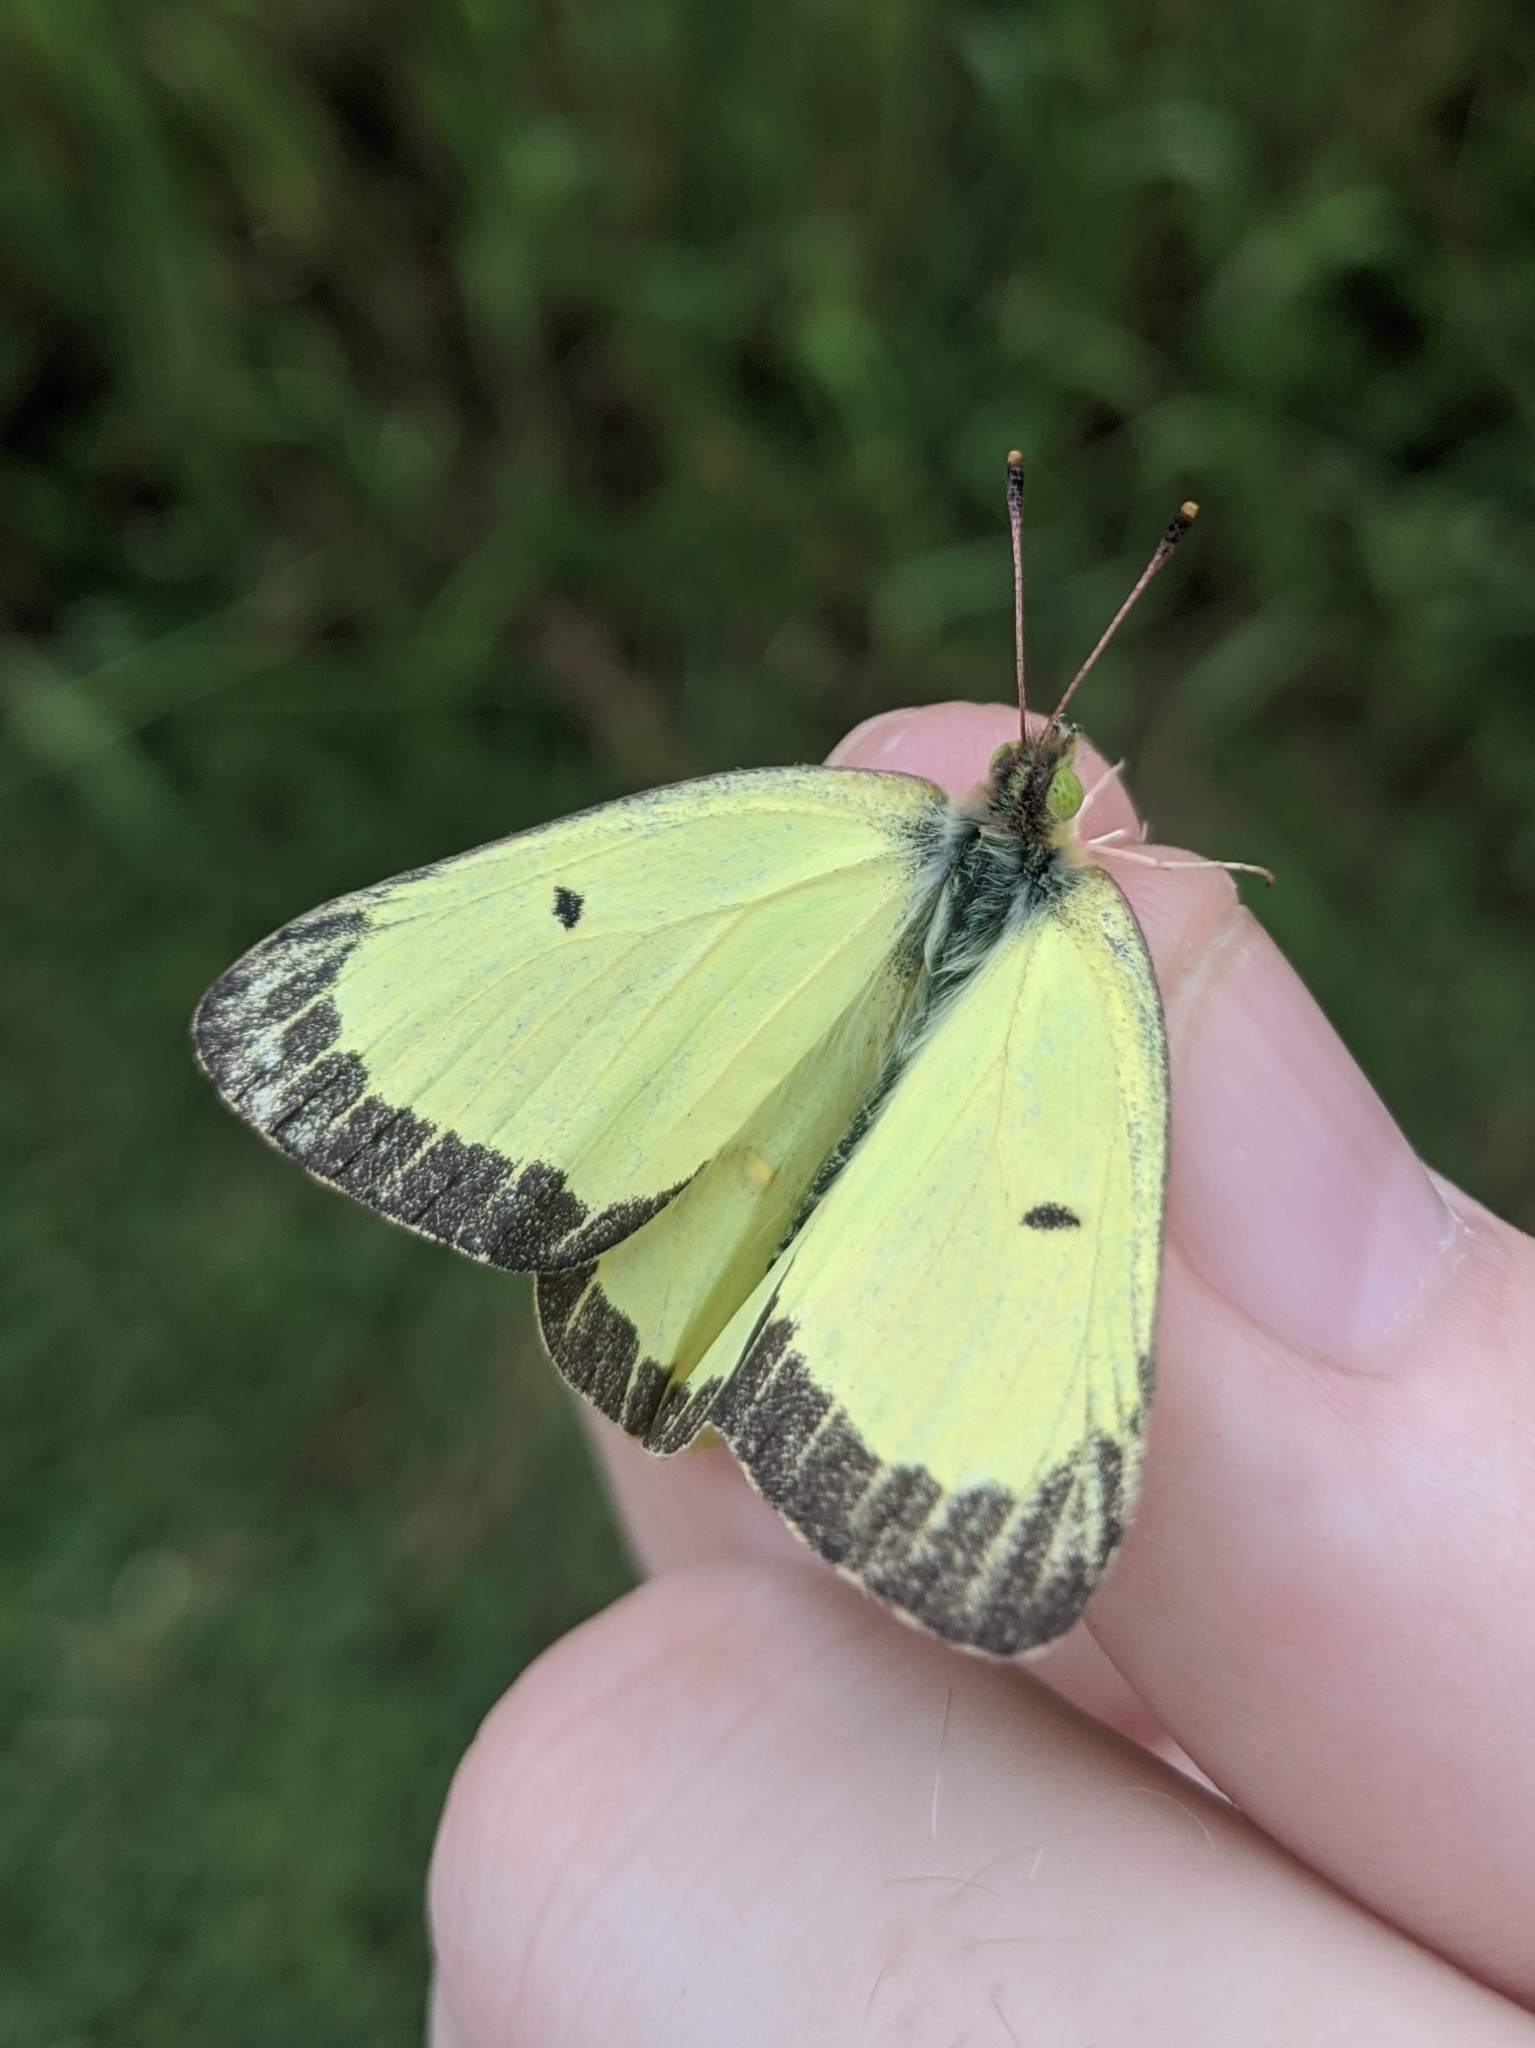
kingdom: Animalia
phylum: Arthropoda
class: Insecta
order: Lepidoptera
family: Pieridae
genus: Colias
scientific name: Colias philodice
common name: Clouded sulphur
